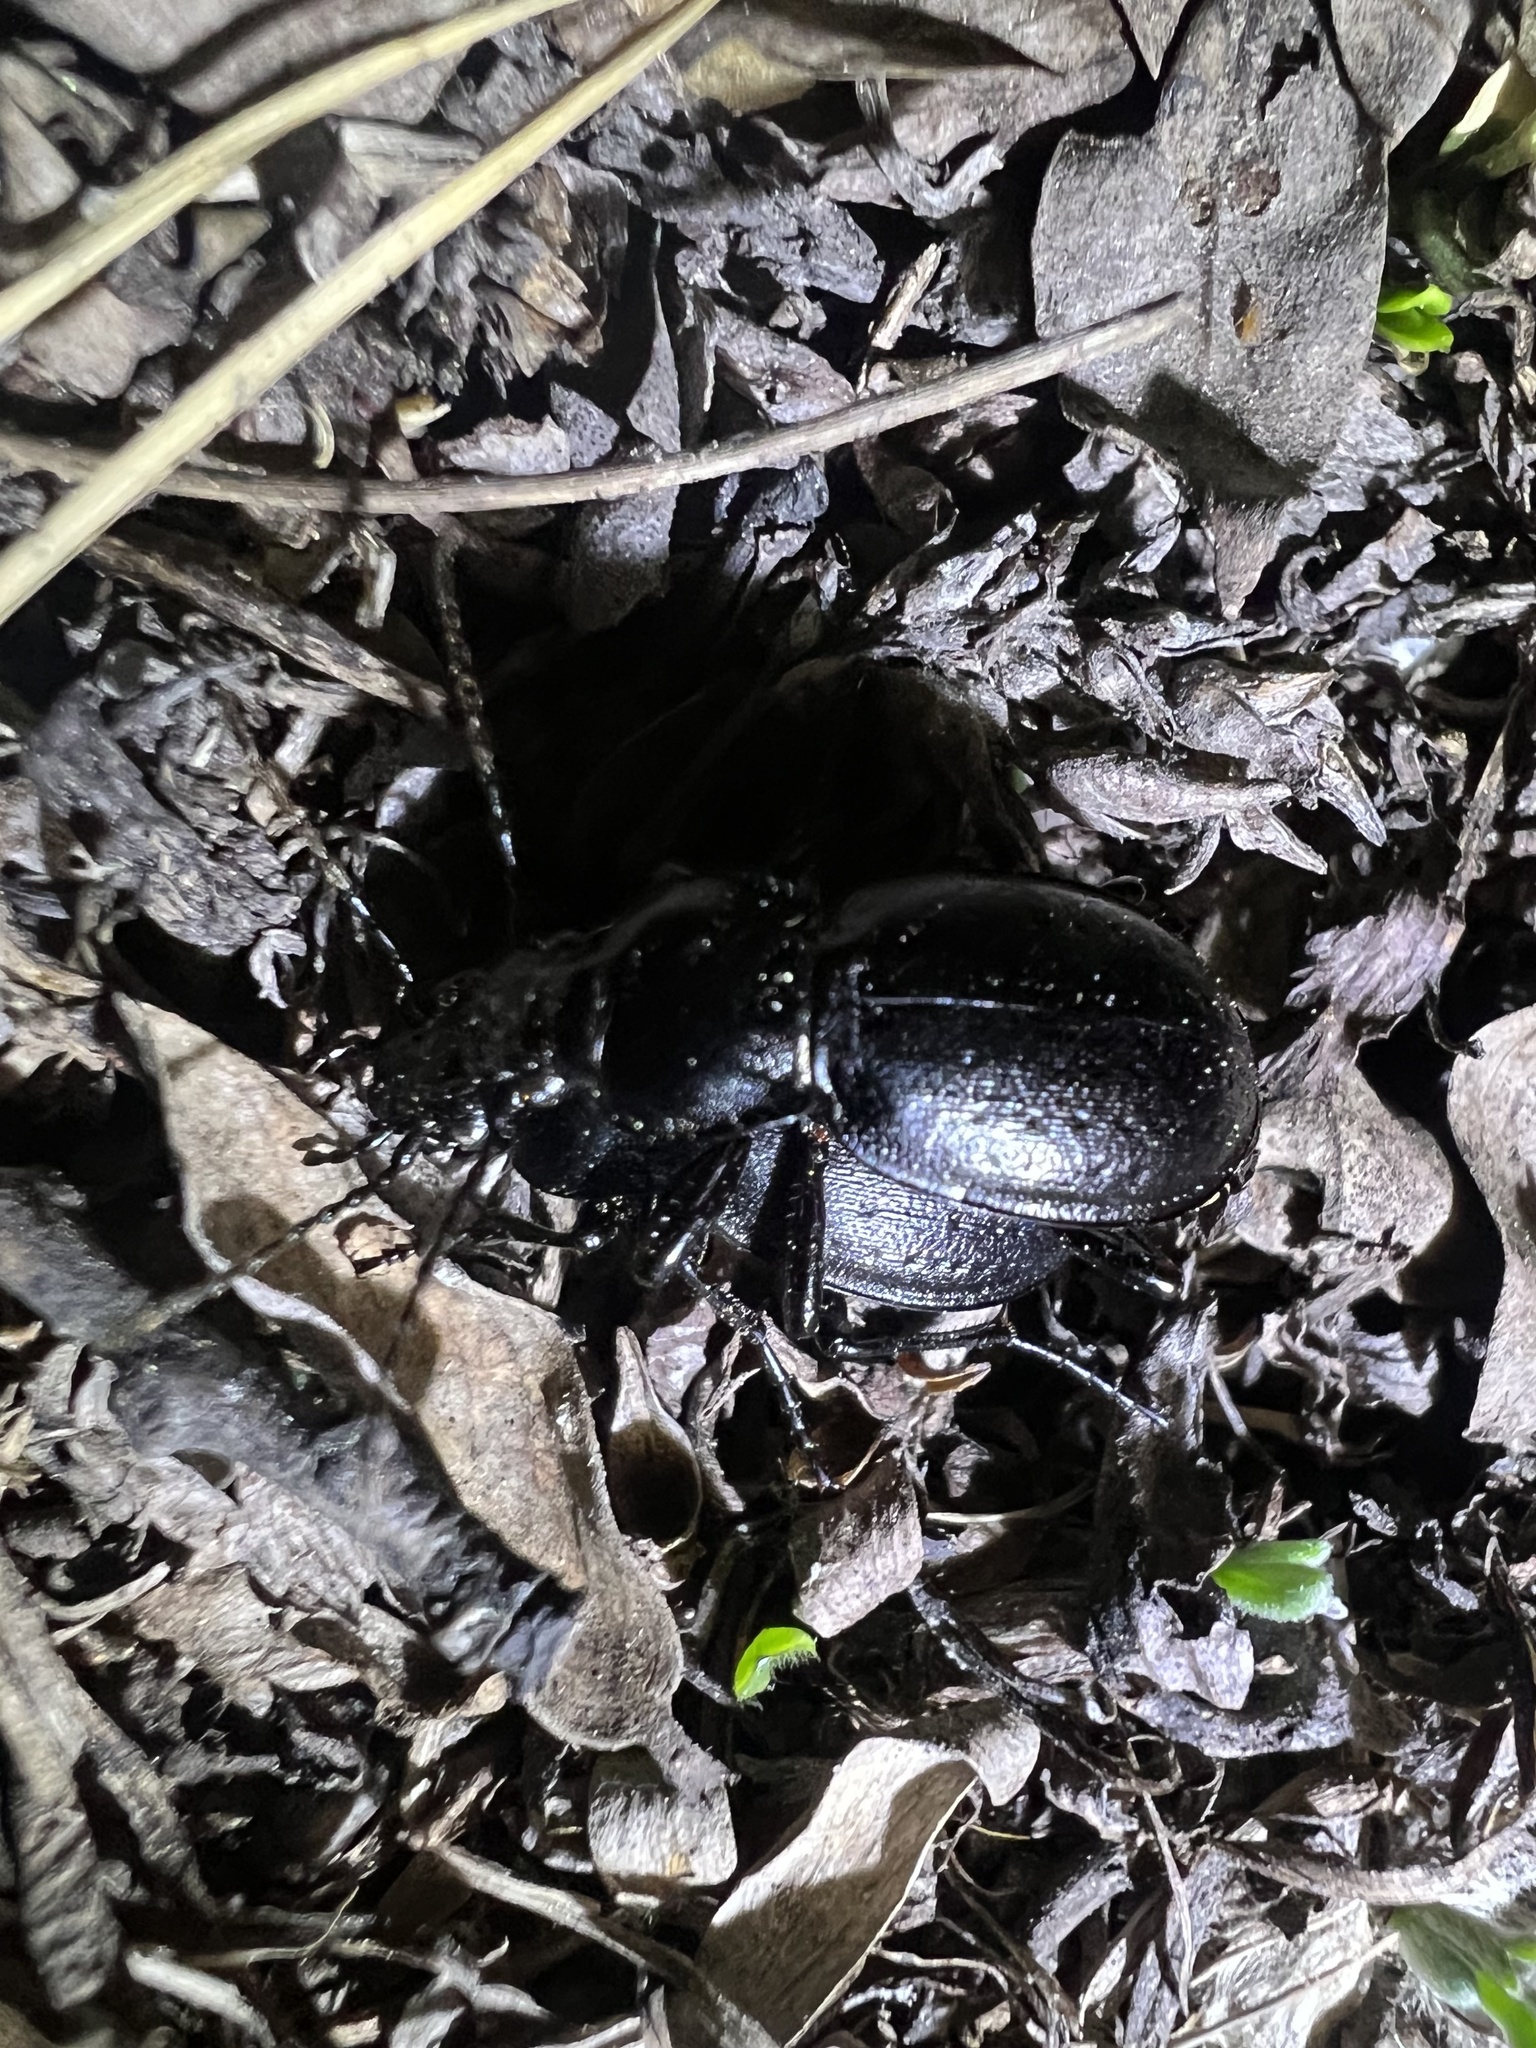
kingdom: Animalia
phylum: Arthropoda
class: Insecta
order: Coleoptera
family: Carabidae
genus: Carabus
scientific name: Carabus taedatus
